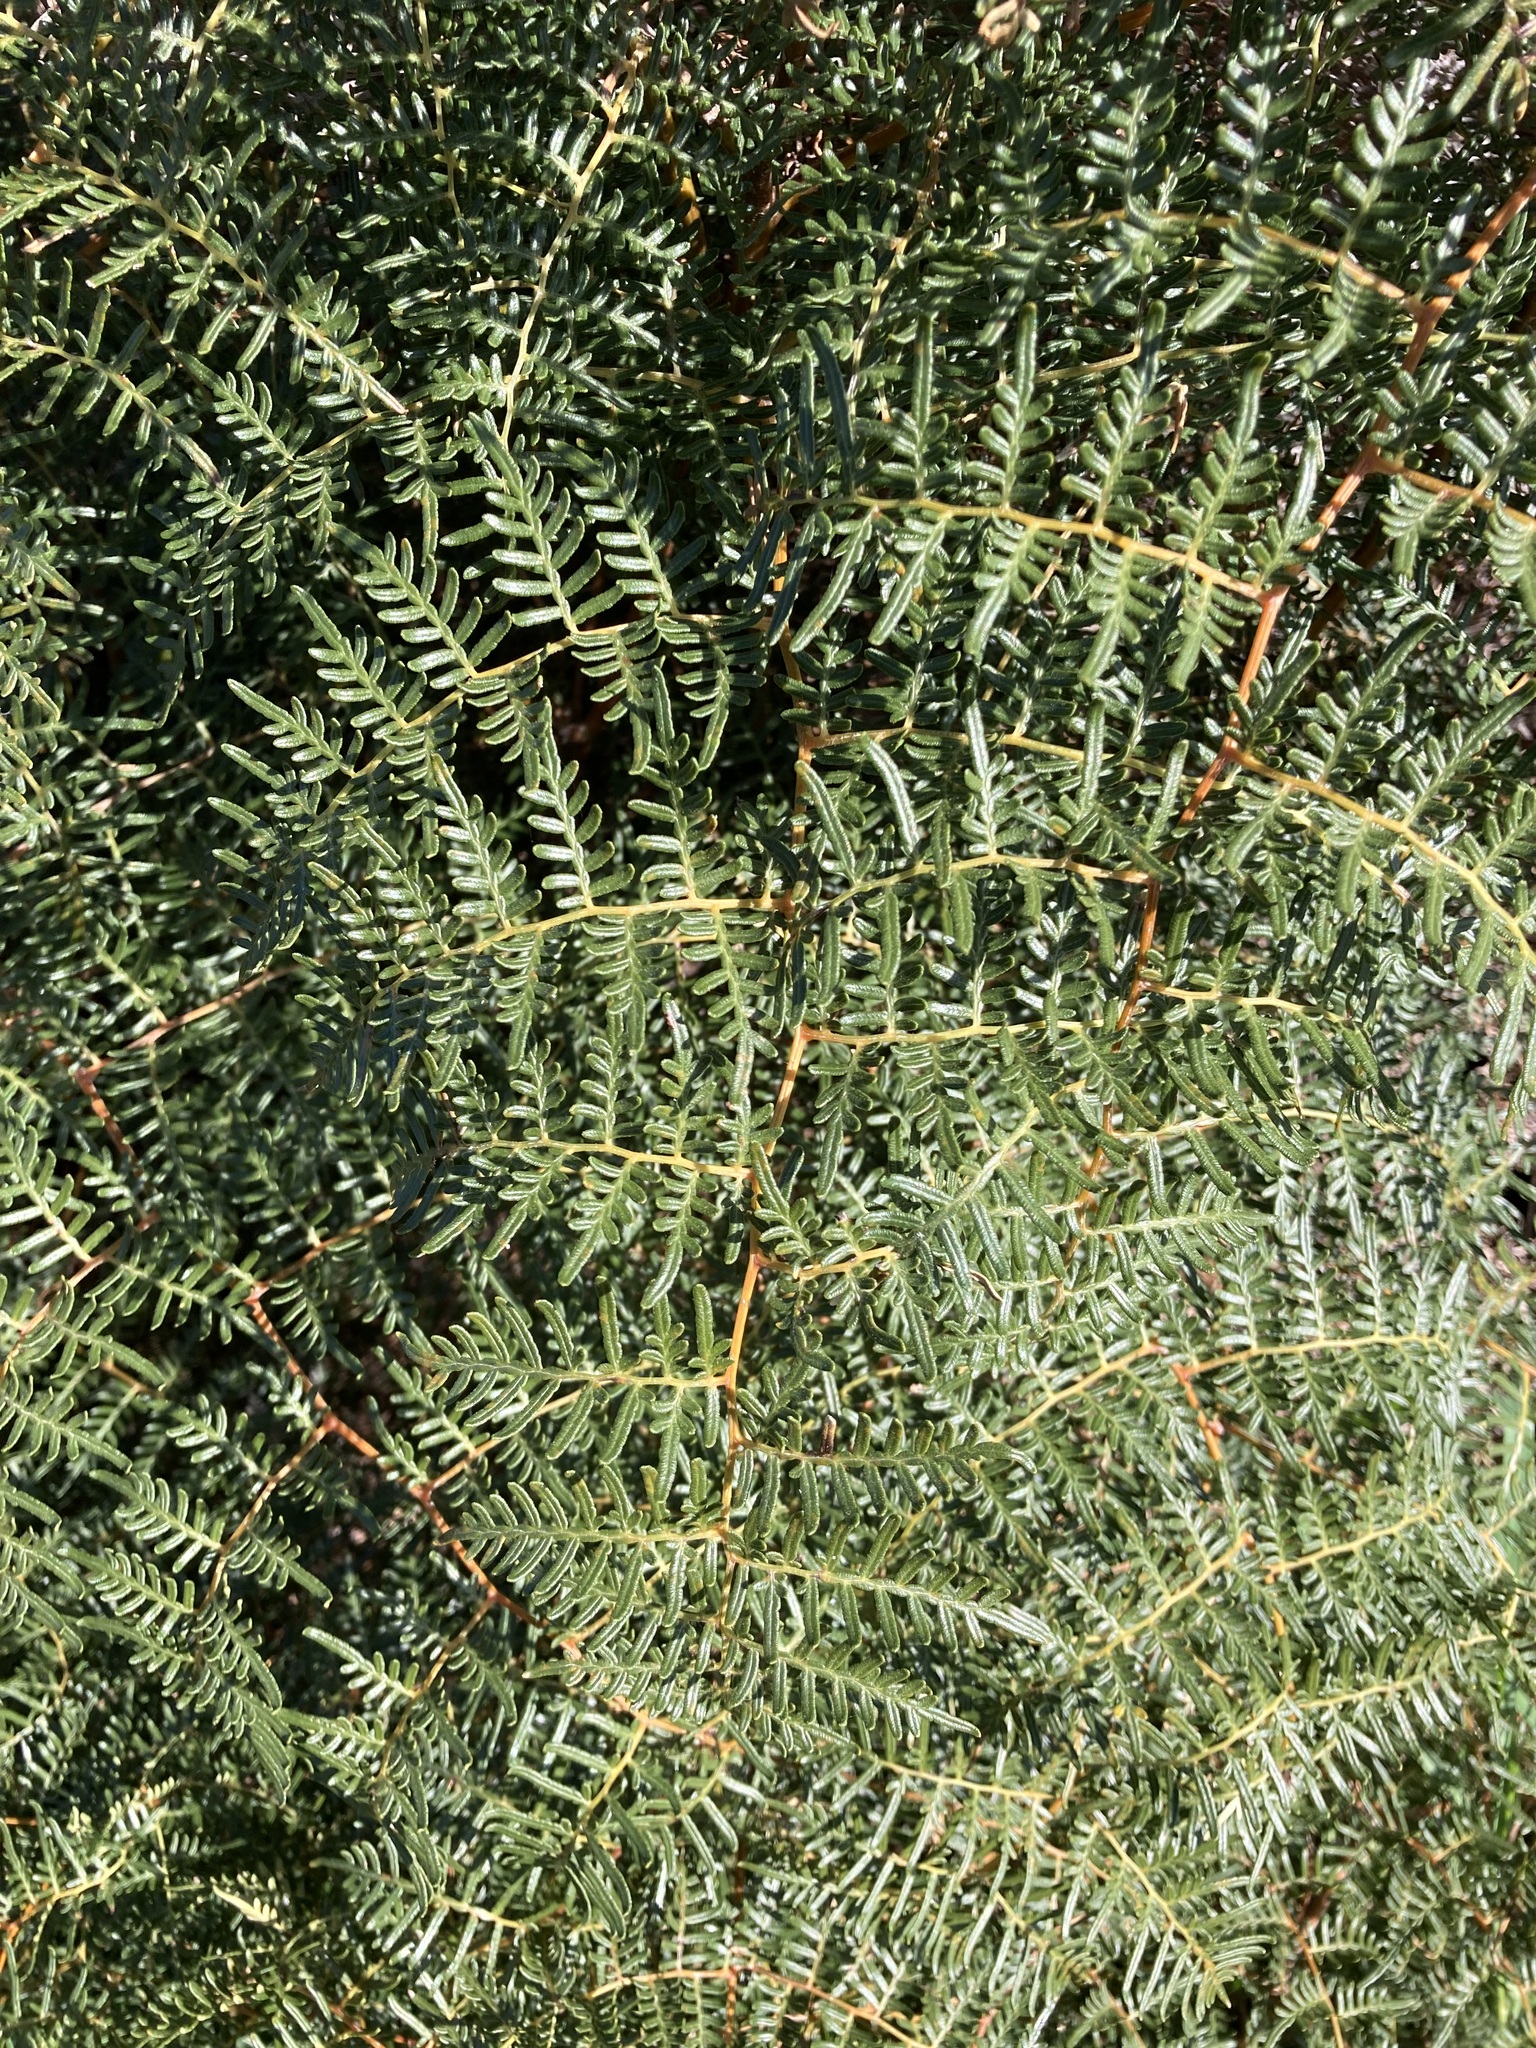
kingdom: Plantae
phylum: Tracheophyta
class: Polypodiopsida
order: Polypodiales
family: Dennstaedtiaceae
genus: Pteridium
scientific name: Pteridium esculentum
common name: Bracken fern
